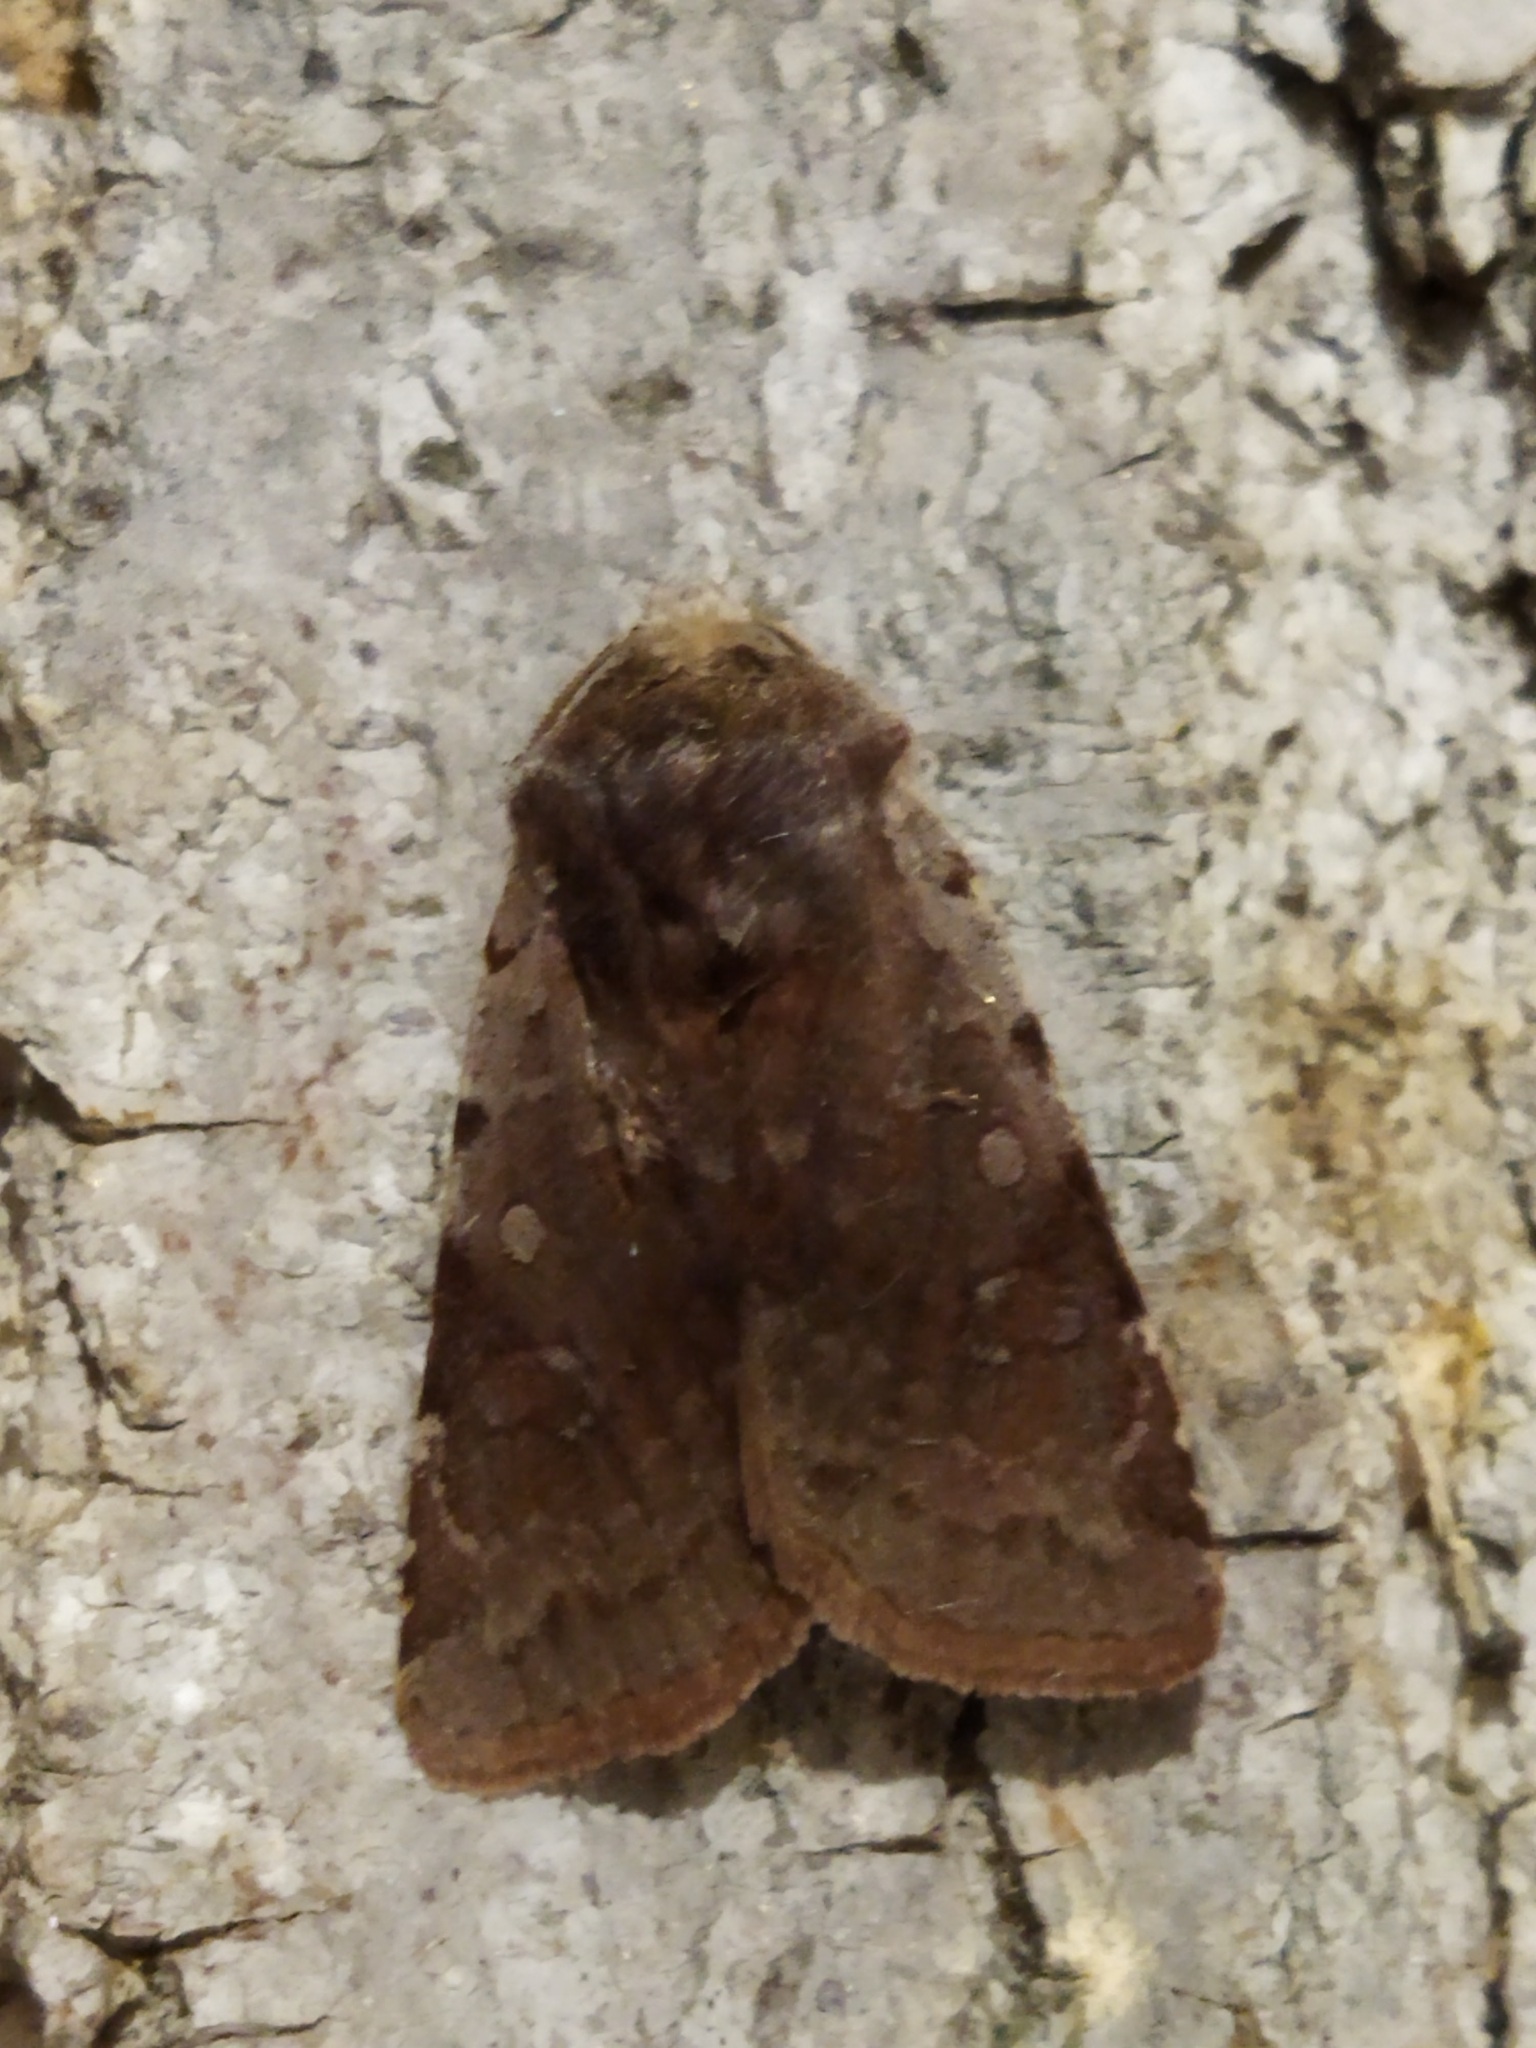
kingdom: Animalia
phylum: Arthropoda
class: Insecta
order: Lepidoptera
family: Noctuidae
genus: Cerastis
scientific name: Cerastis rubricosa
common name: Red chestnut
